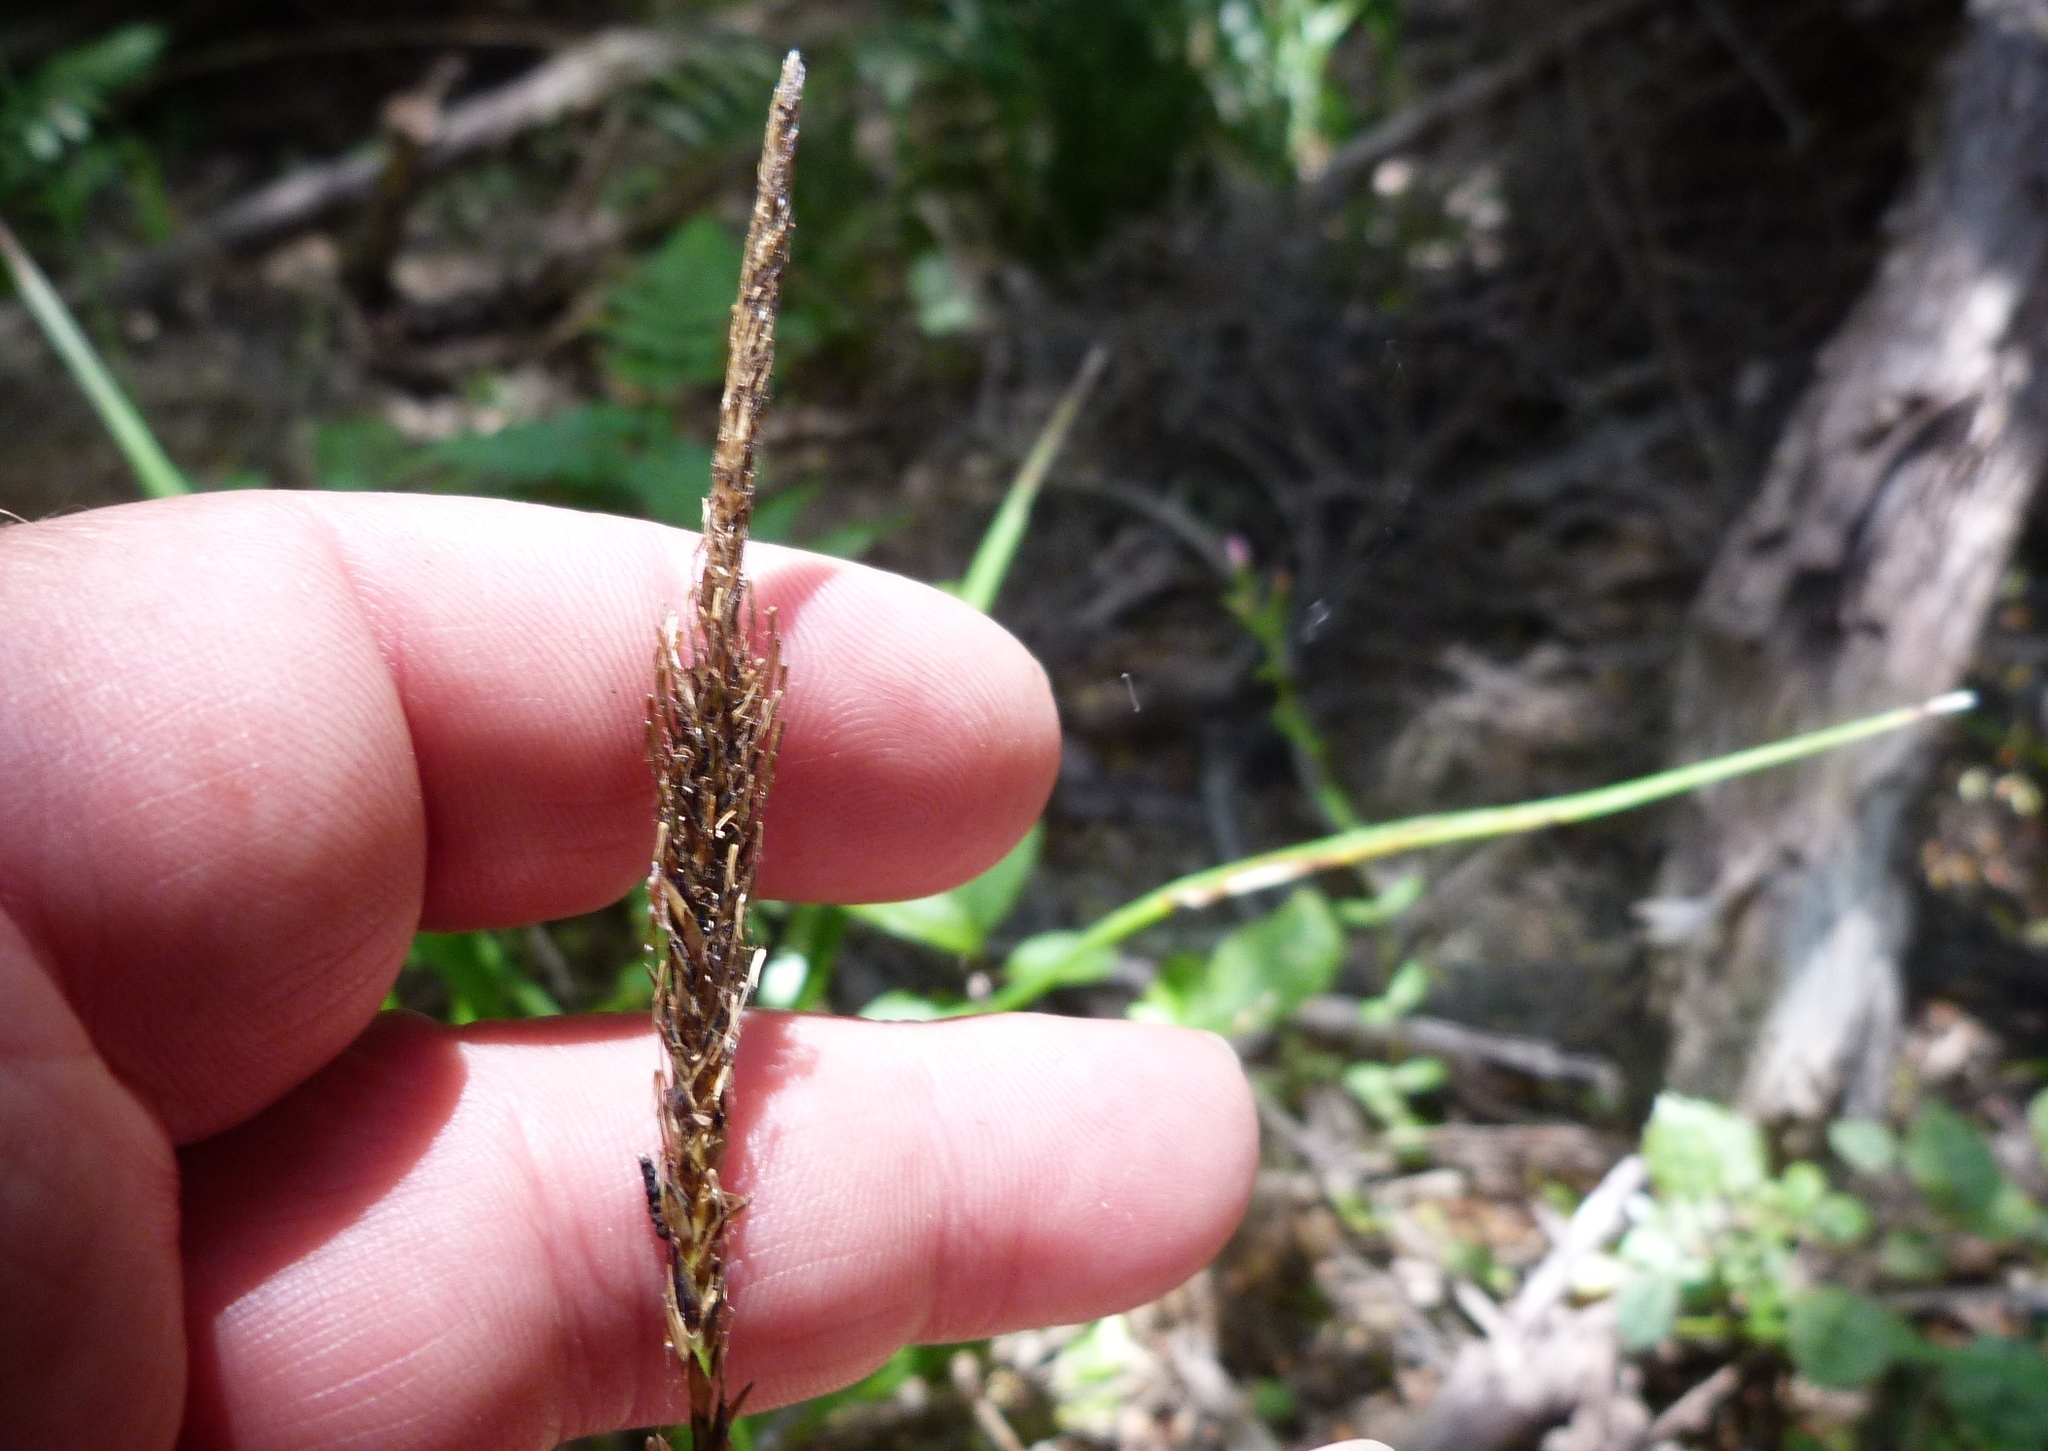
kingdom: Plantae
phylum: Tracheophyta
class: Liliopsida
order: Poales
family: Cyperaceae
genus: Carex
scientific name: Carex uncinata
